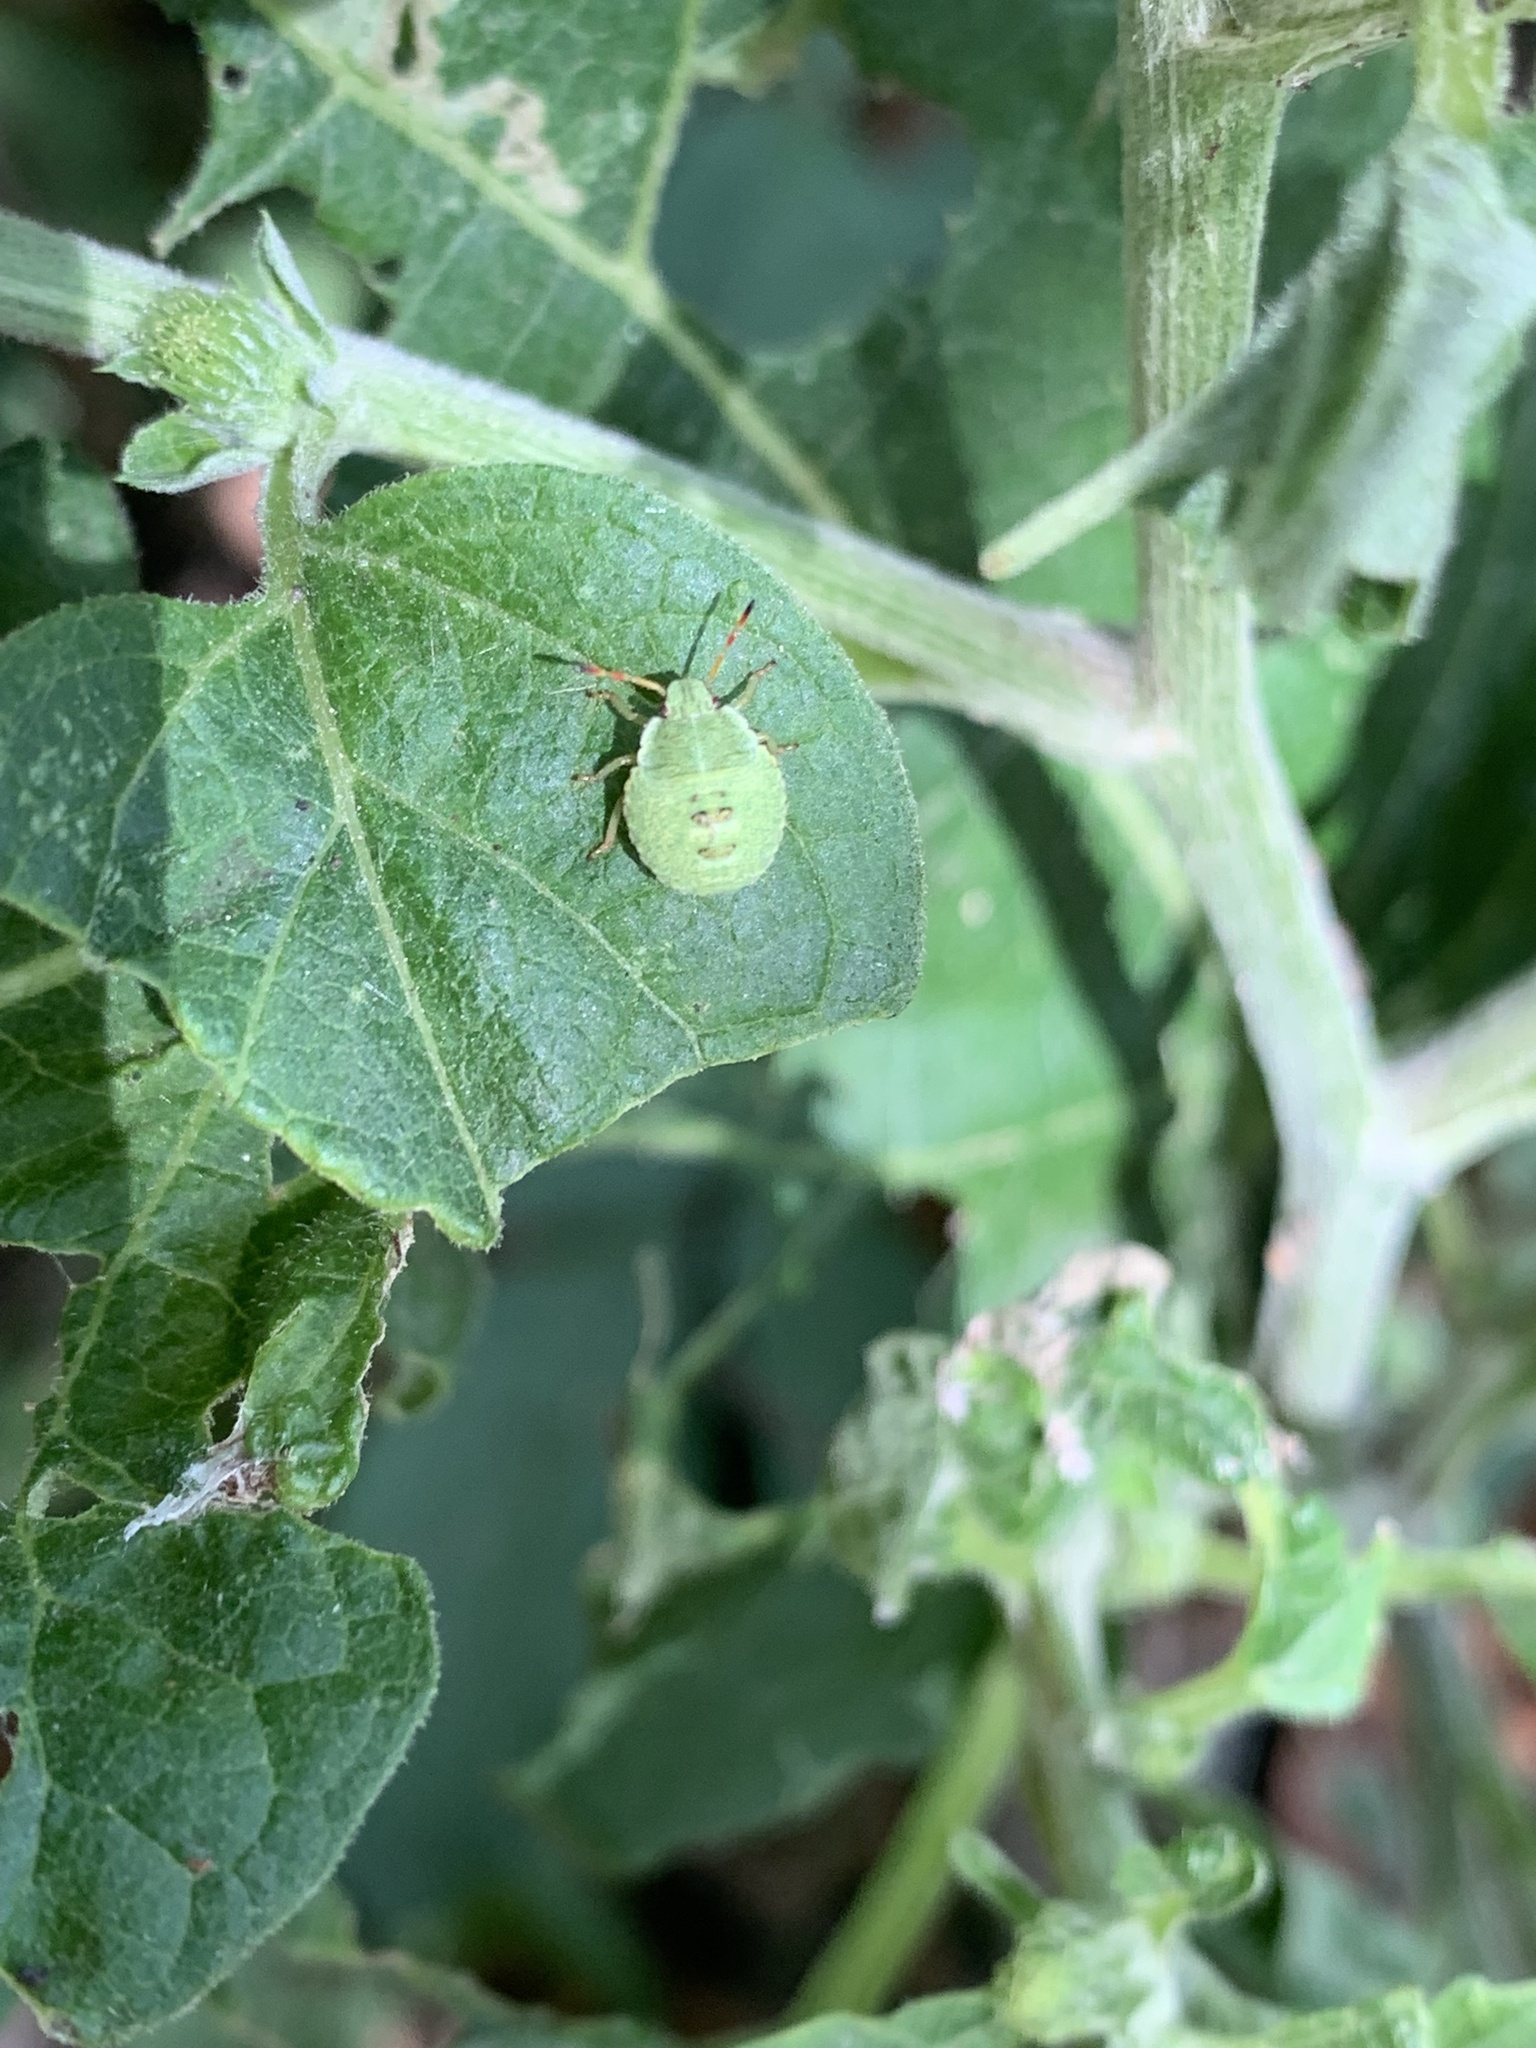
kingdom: Animalia
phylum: Arthropoda
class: Insecta
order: Hemiptera
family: Pentatomidae
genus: Palomena
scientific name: Palomena prasina
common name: Green shieldbug
